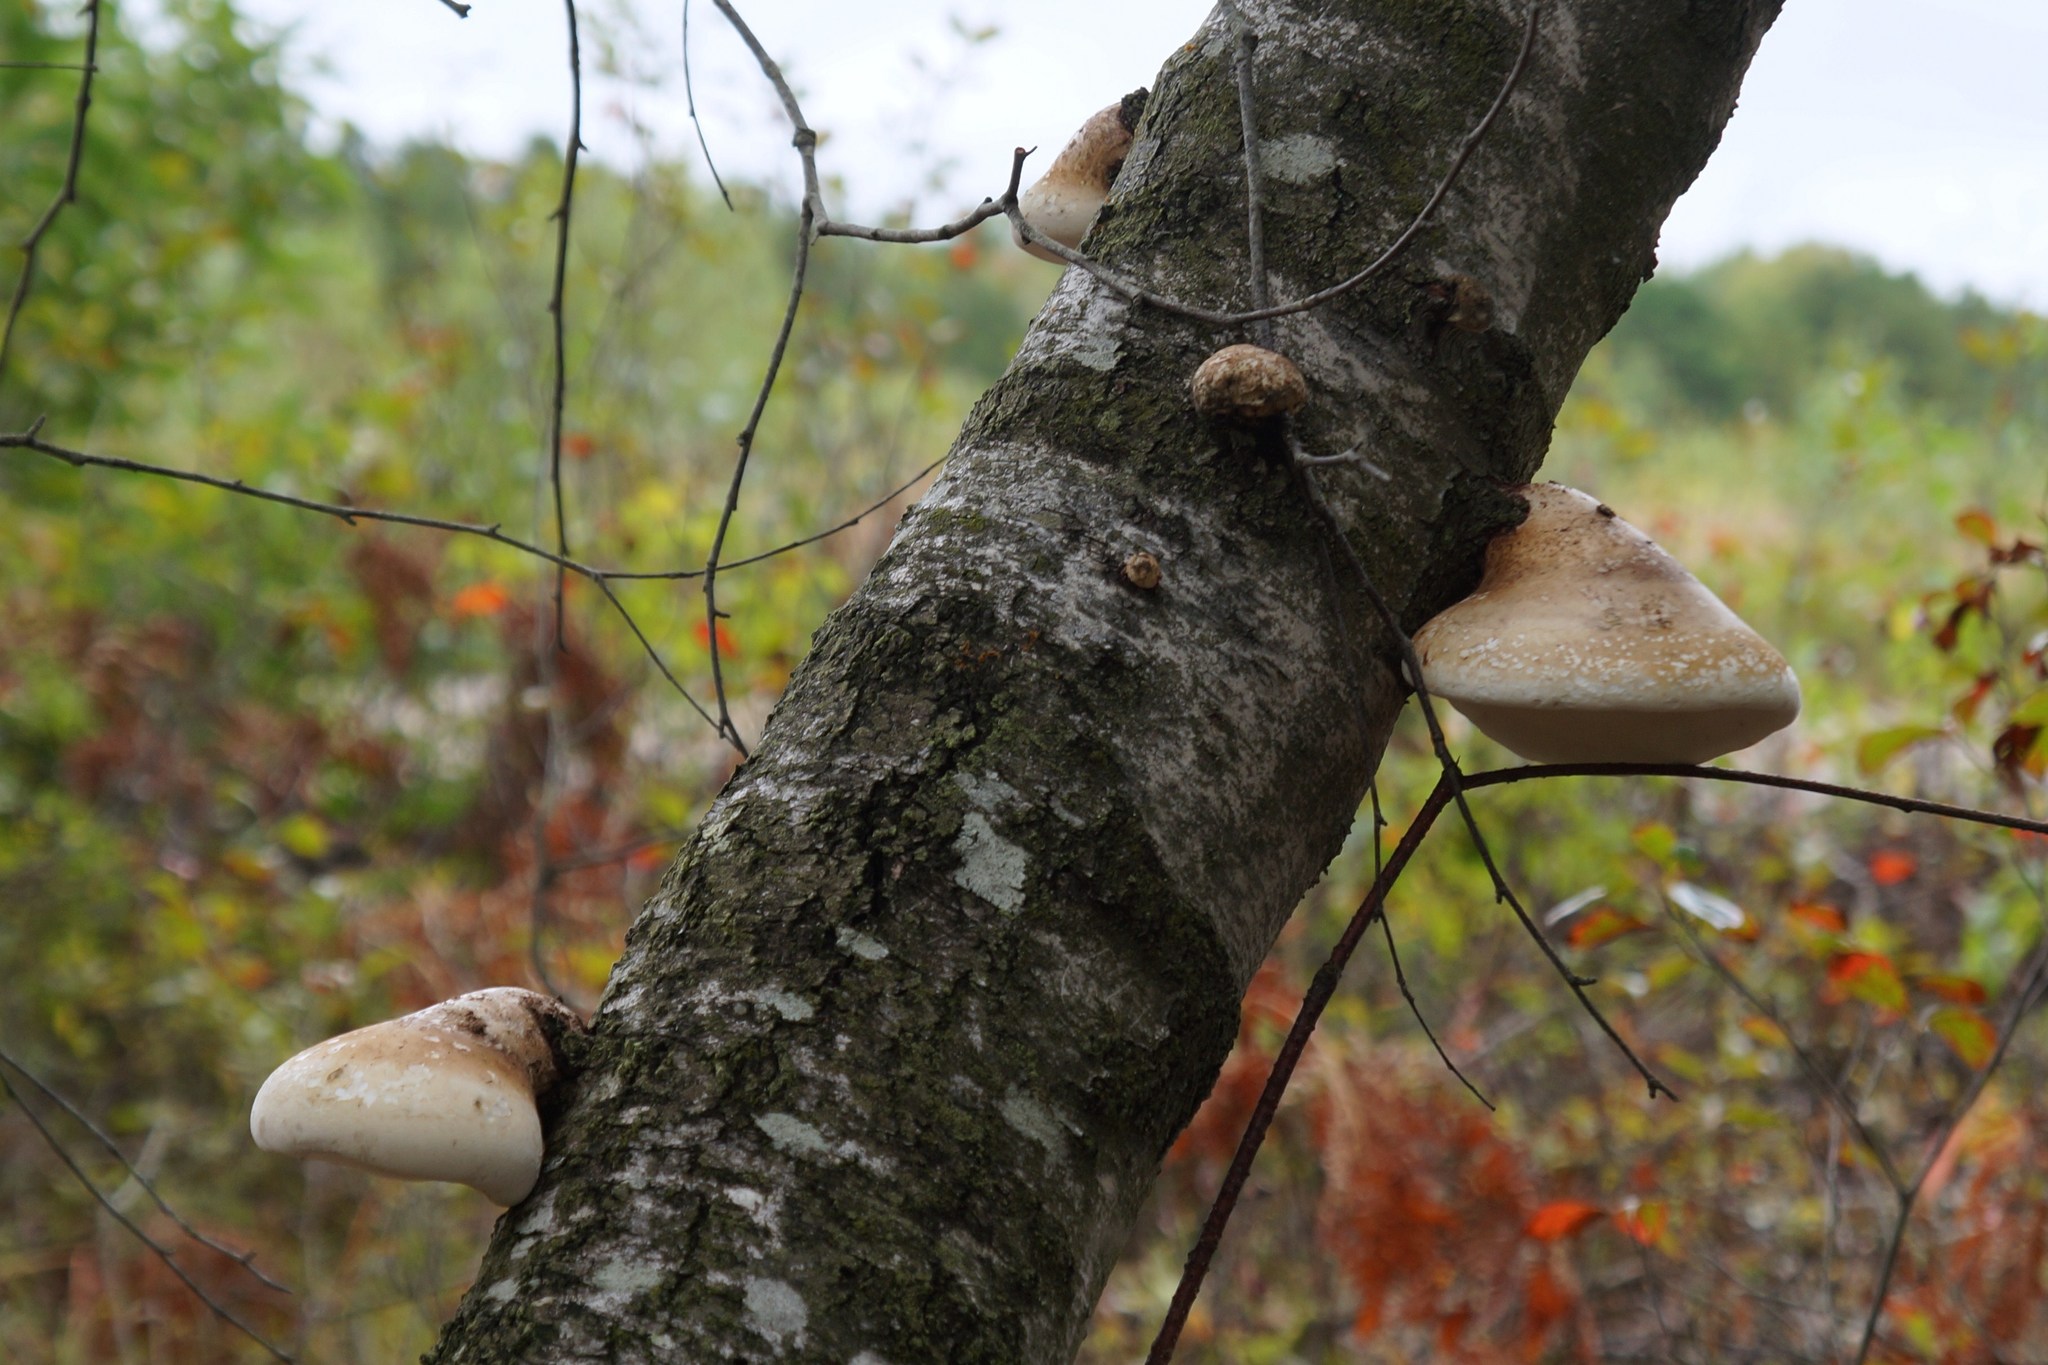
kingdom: Fungi
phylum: Basidiomycota
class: Agaricomycetes
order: Polyporales
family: Fomitopsidaceae
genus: Fomitopsis
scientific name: Fomitopsis betulina
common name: Birch polypore
